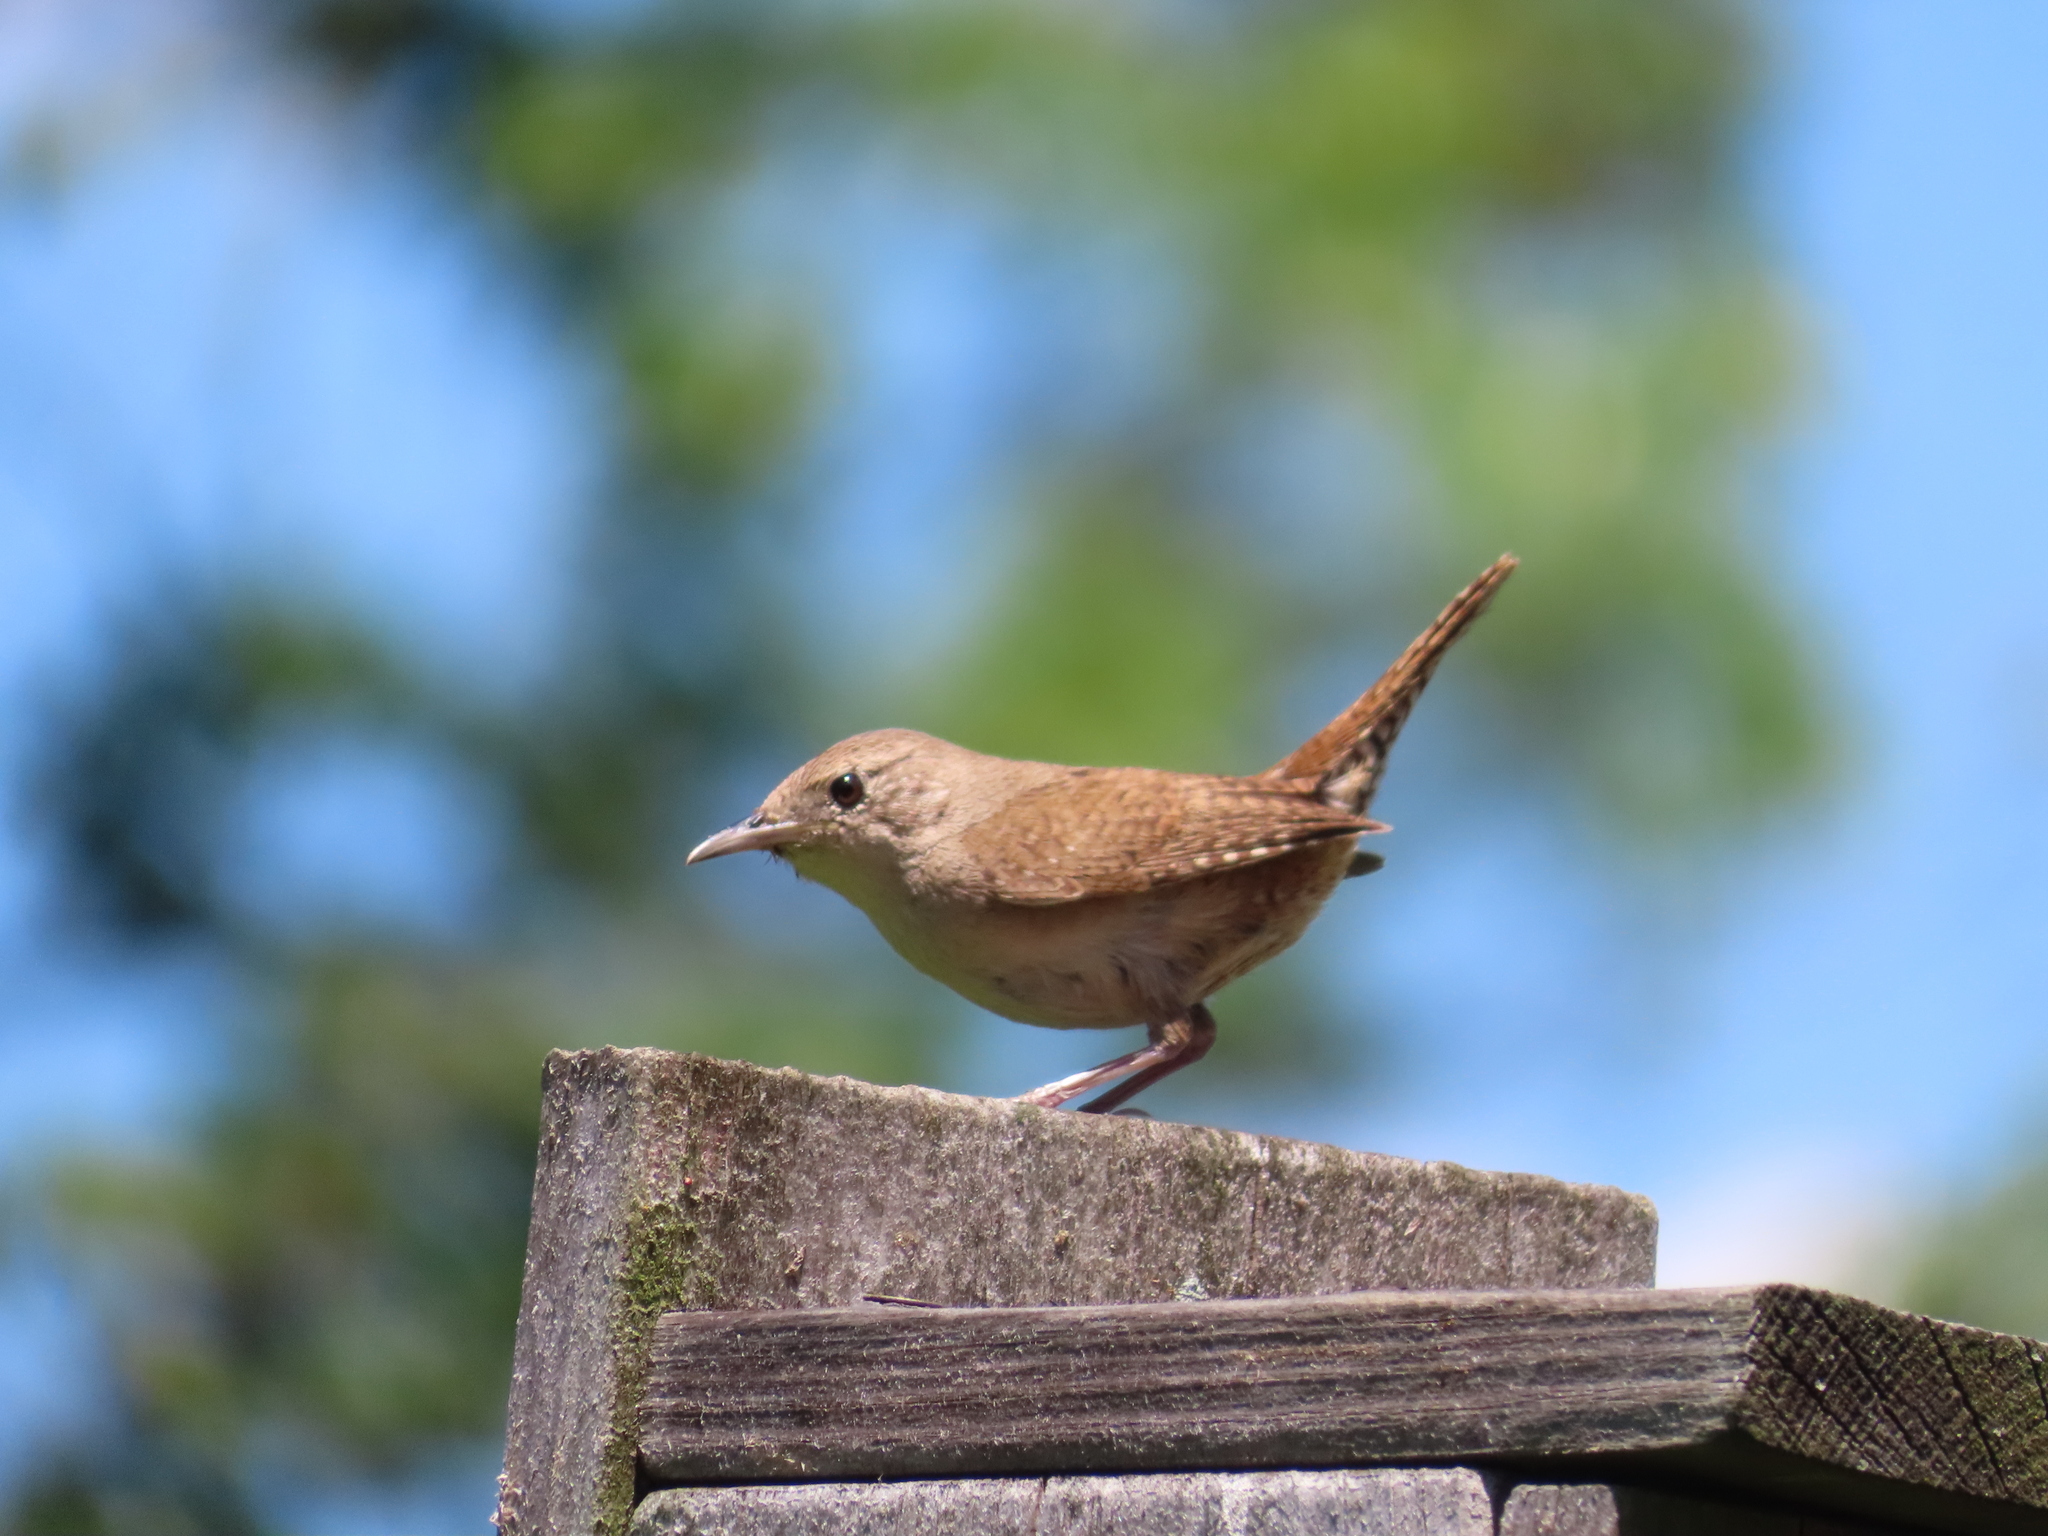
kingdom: Animalia
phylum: Chordata
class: Aves
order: Passeriformes
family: Troglodytidae
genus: Troglodytes
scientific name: Troglodytes aedon
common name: House wren
